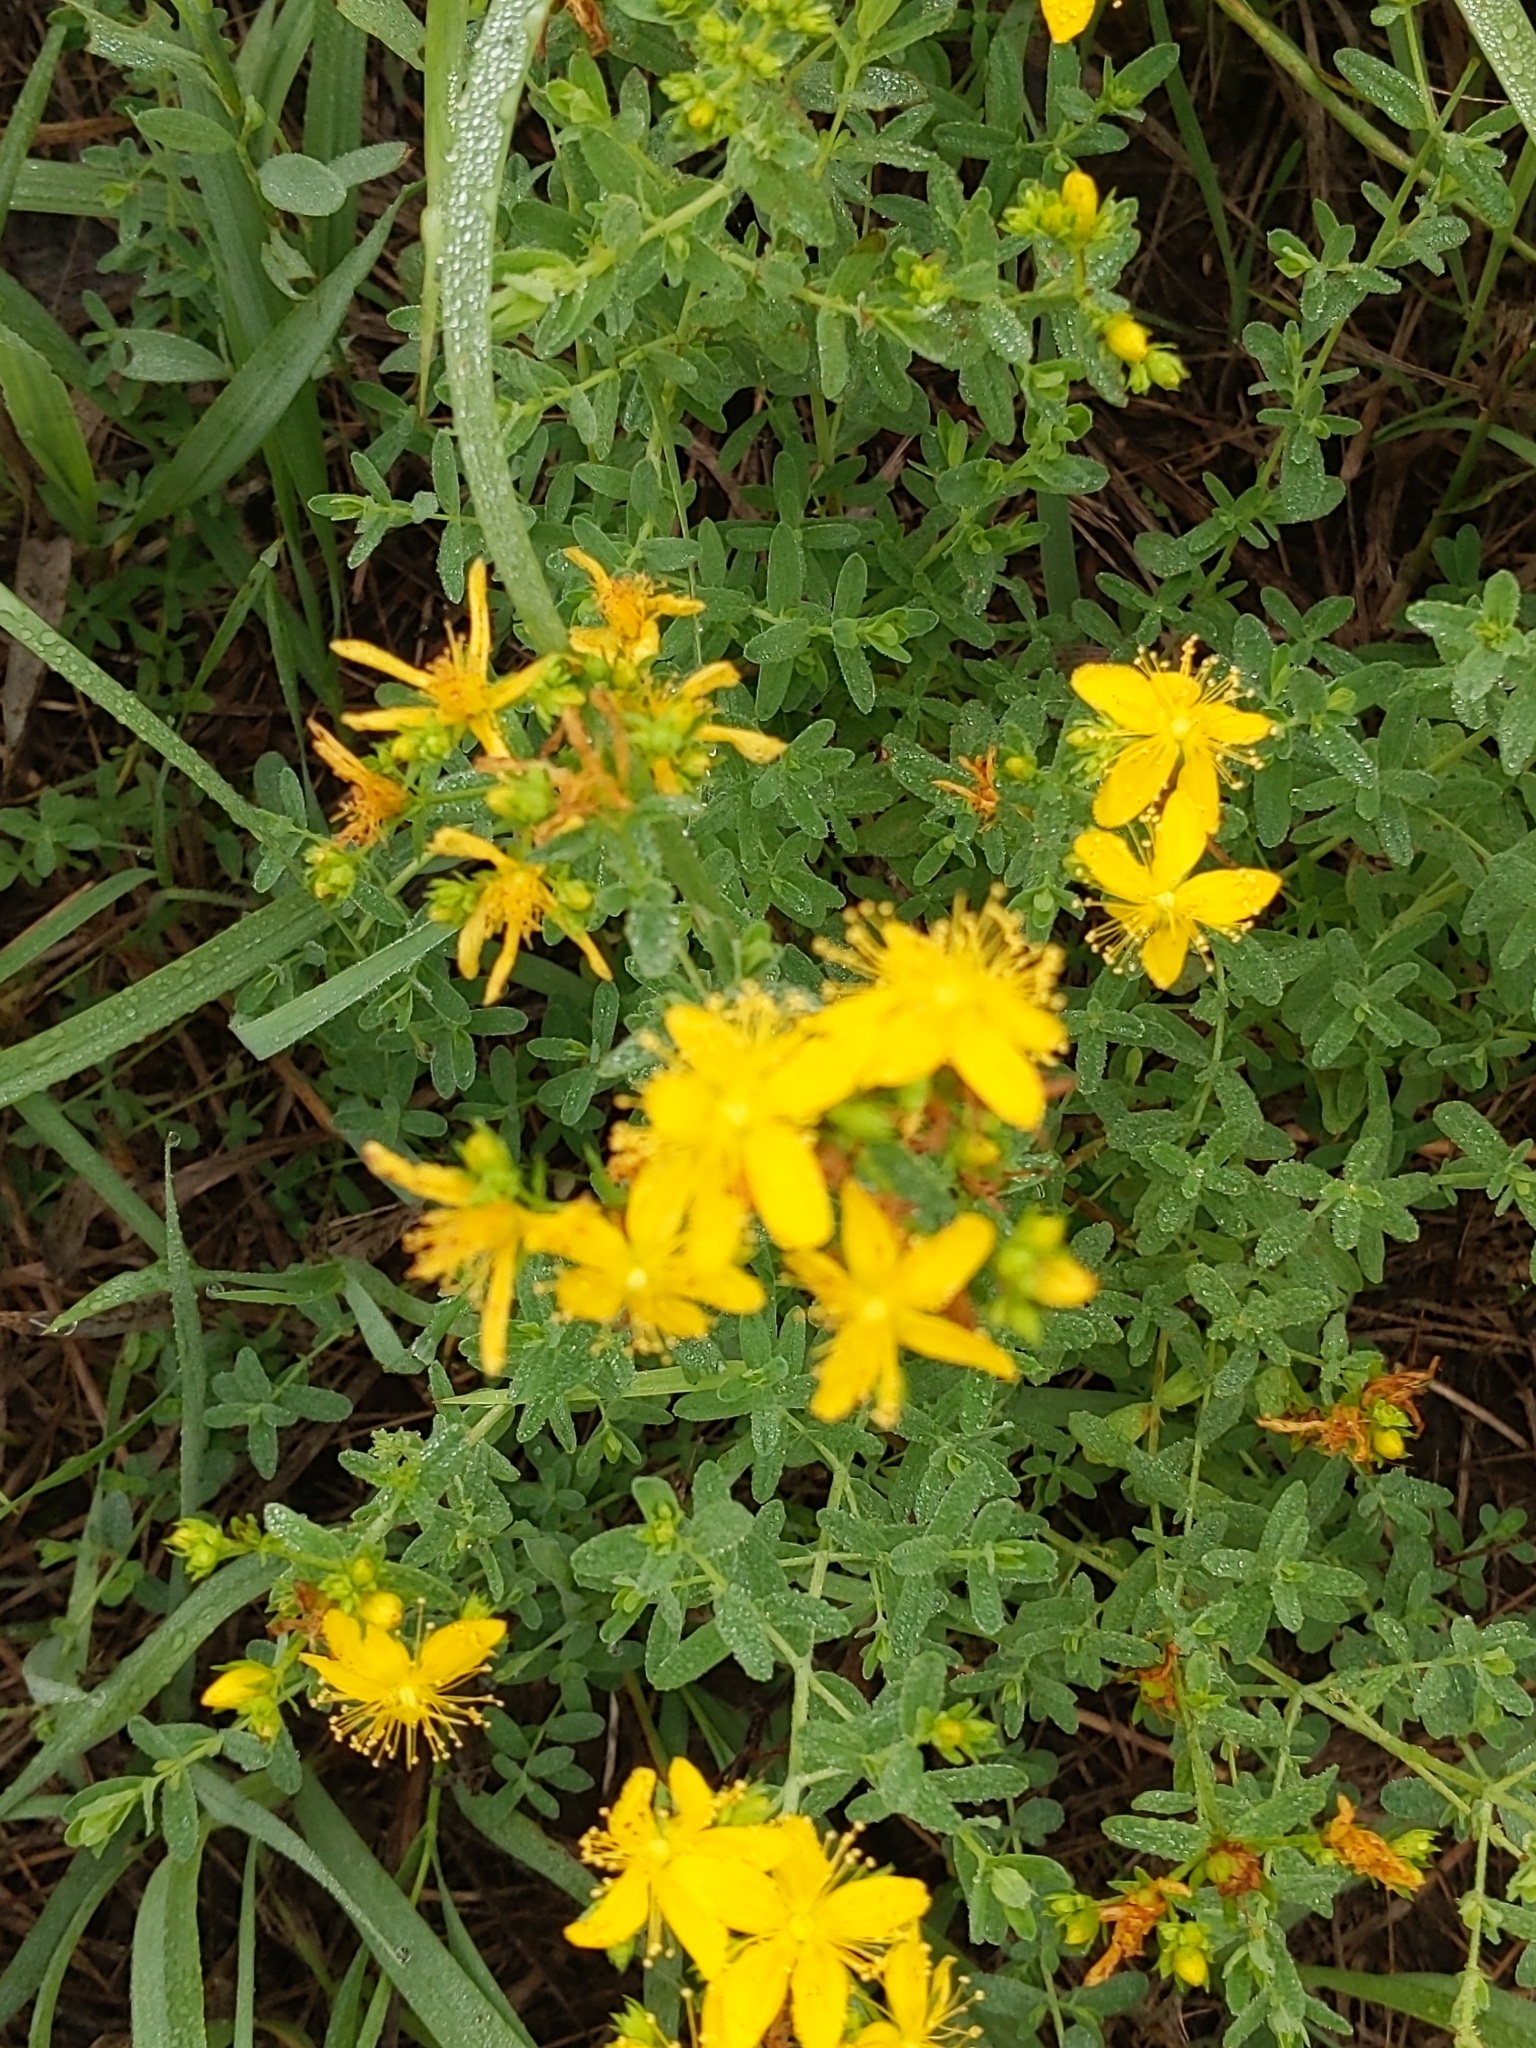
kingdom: Plantae
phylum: Tracheophyta
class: Magnoliopsida
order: Malpighiales
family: Hypericaceae
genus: Hypericum
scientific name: Hypericum perforatum
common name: Common st. johnswort
